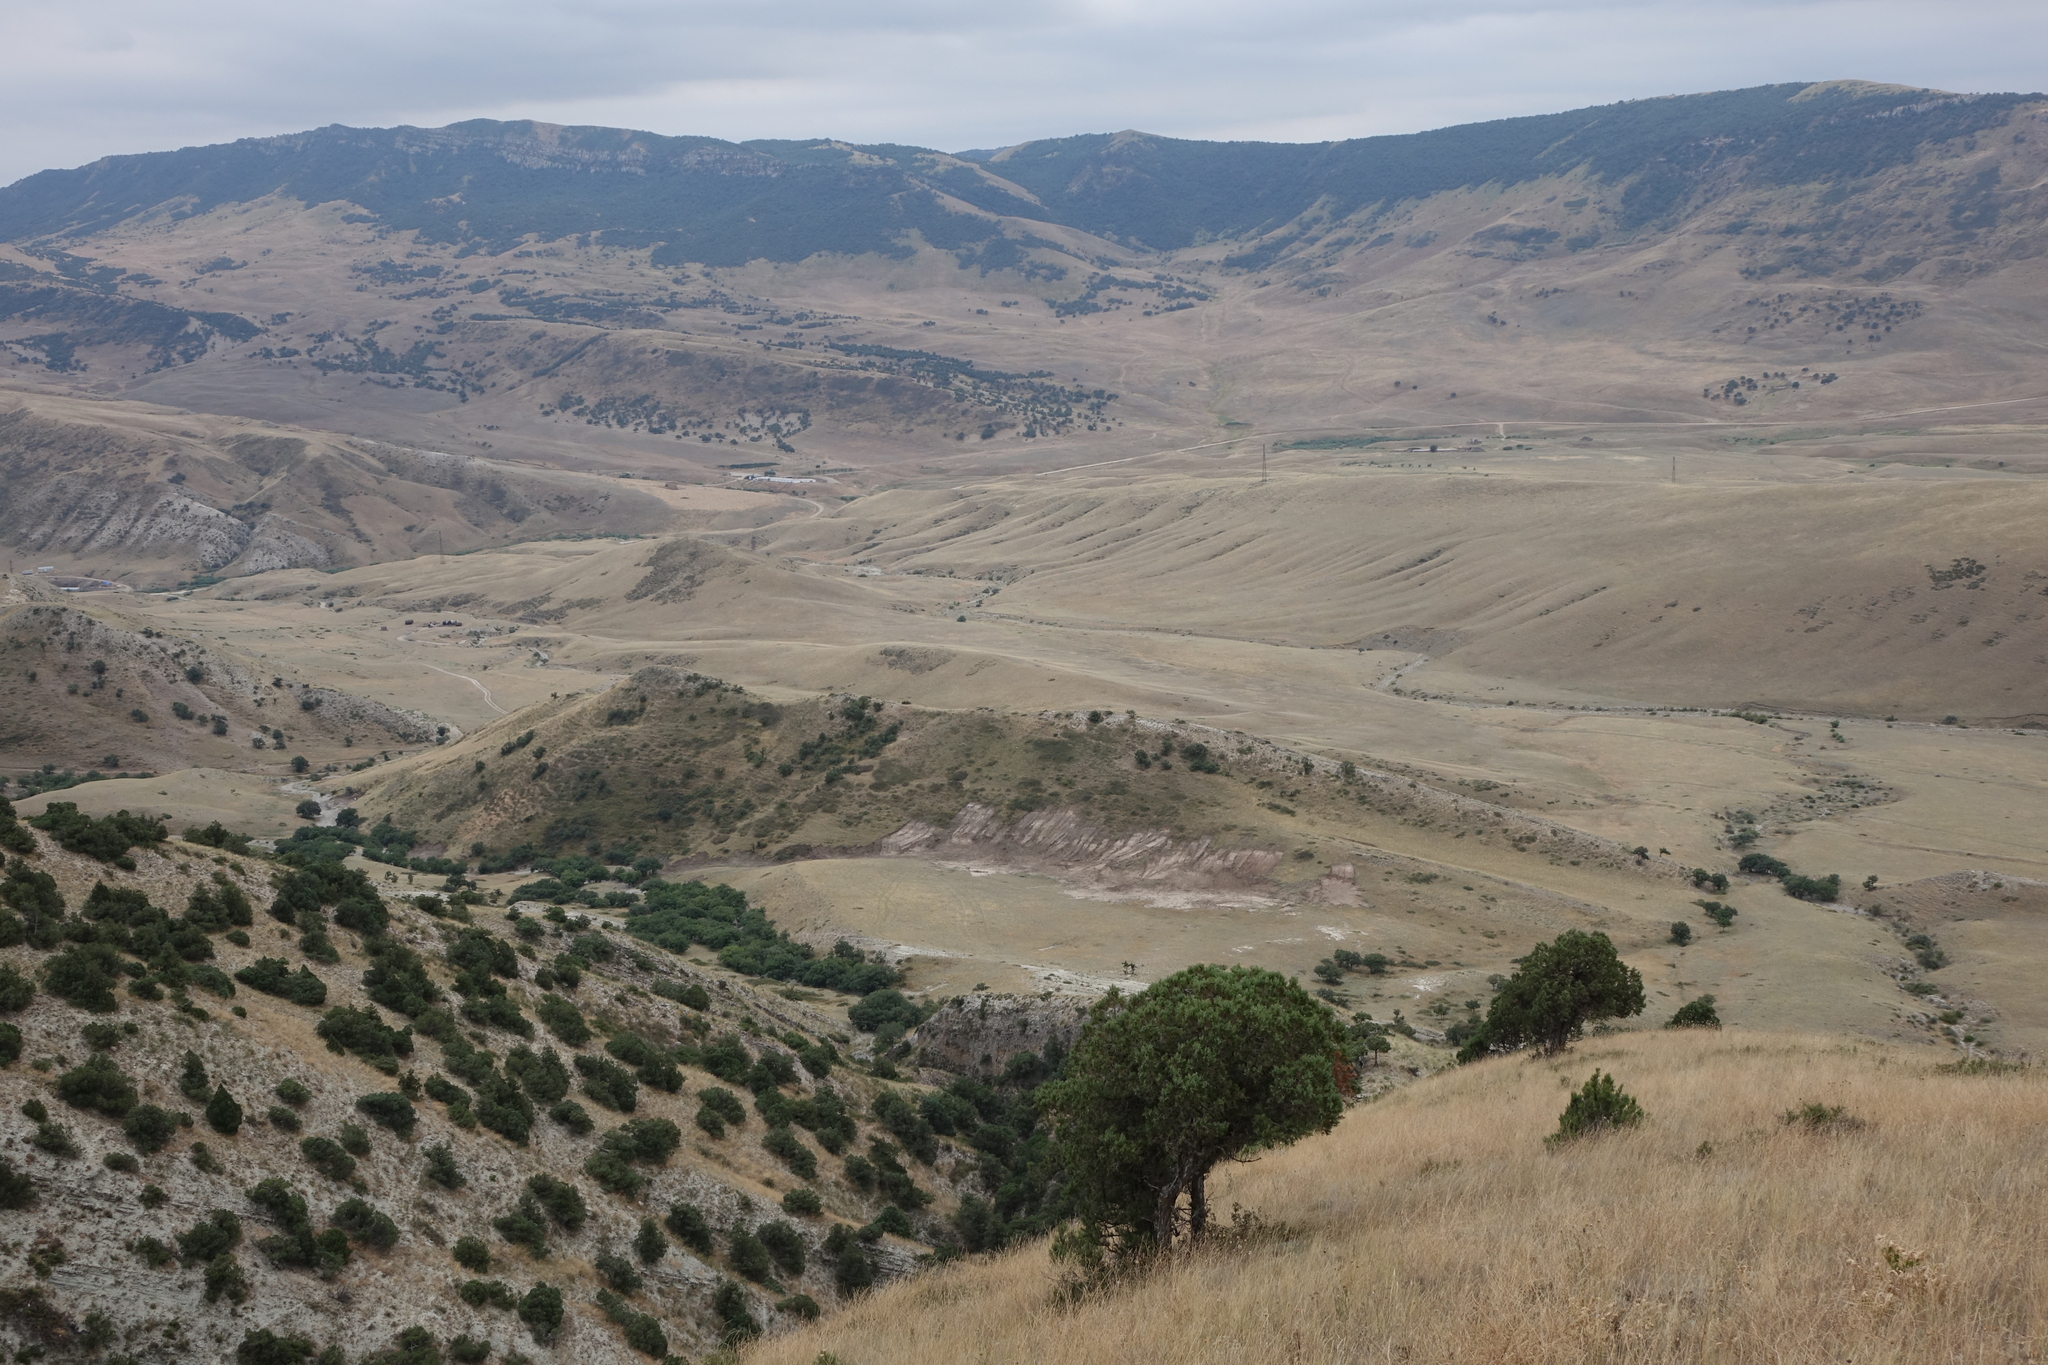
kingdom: Plantae
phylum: Tracheophyta
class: Pinopsida
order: Pinales
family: Cupressaceae
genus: Juniperus
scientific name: Juniperus excelsa
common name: Crimean juniper
